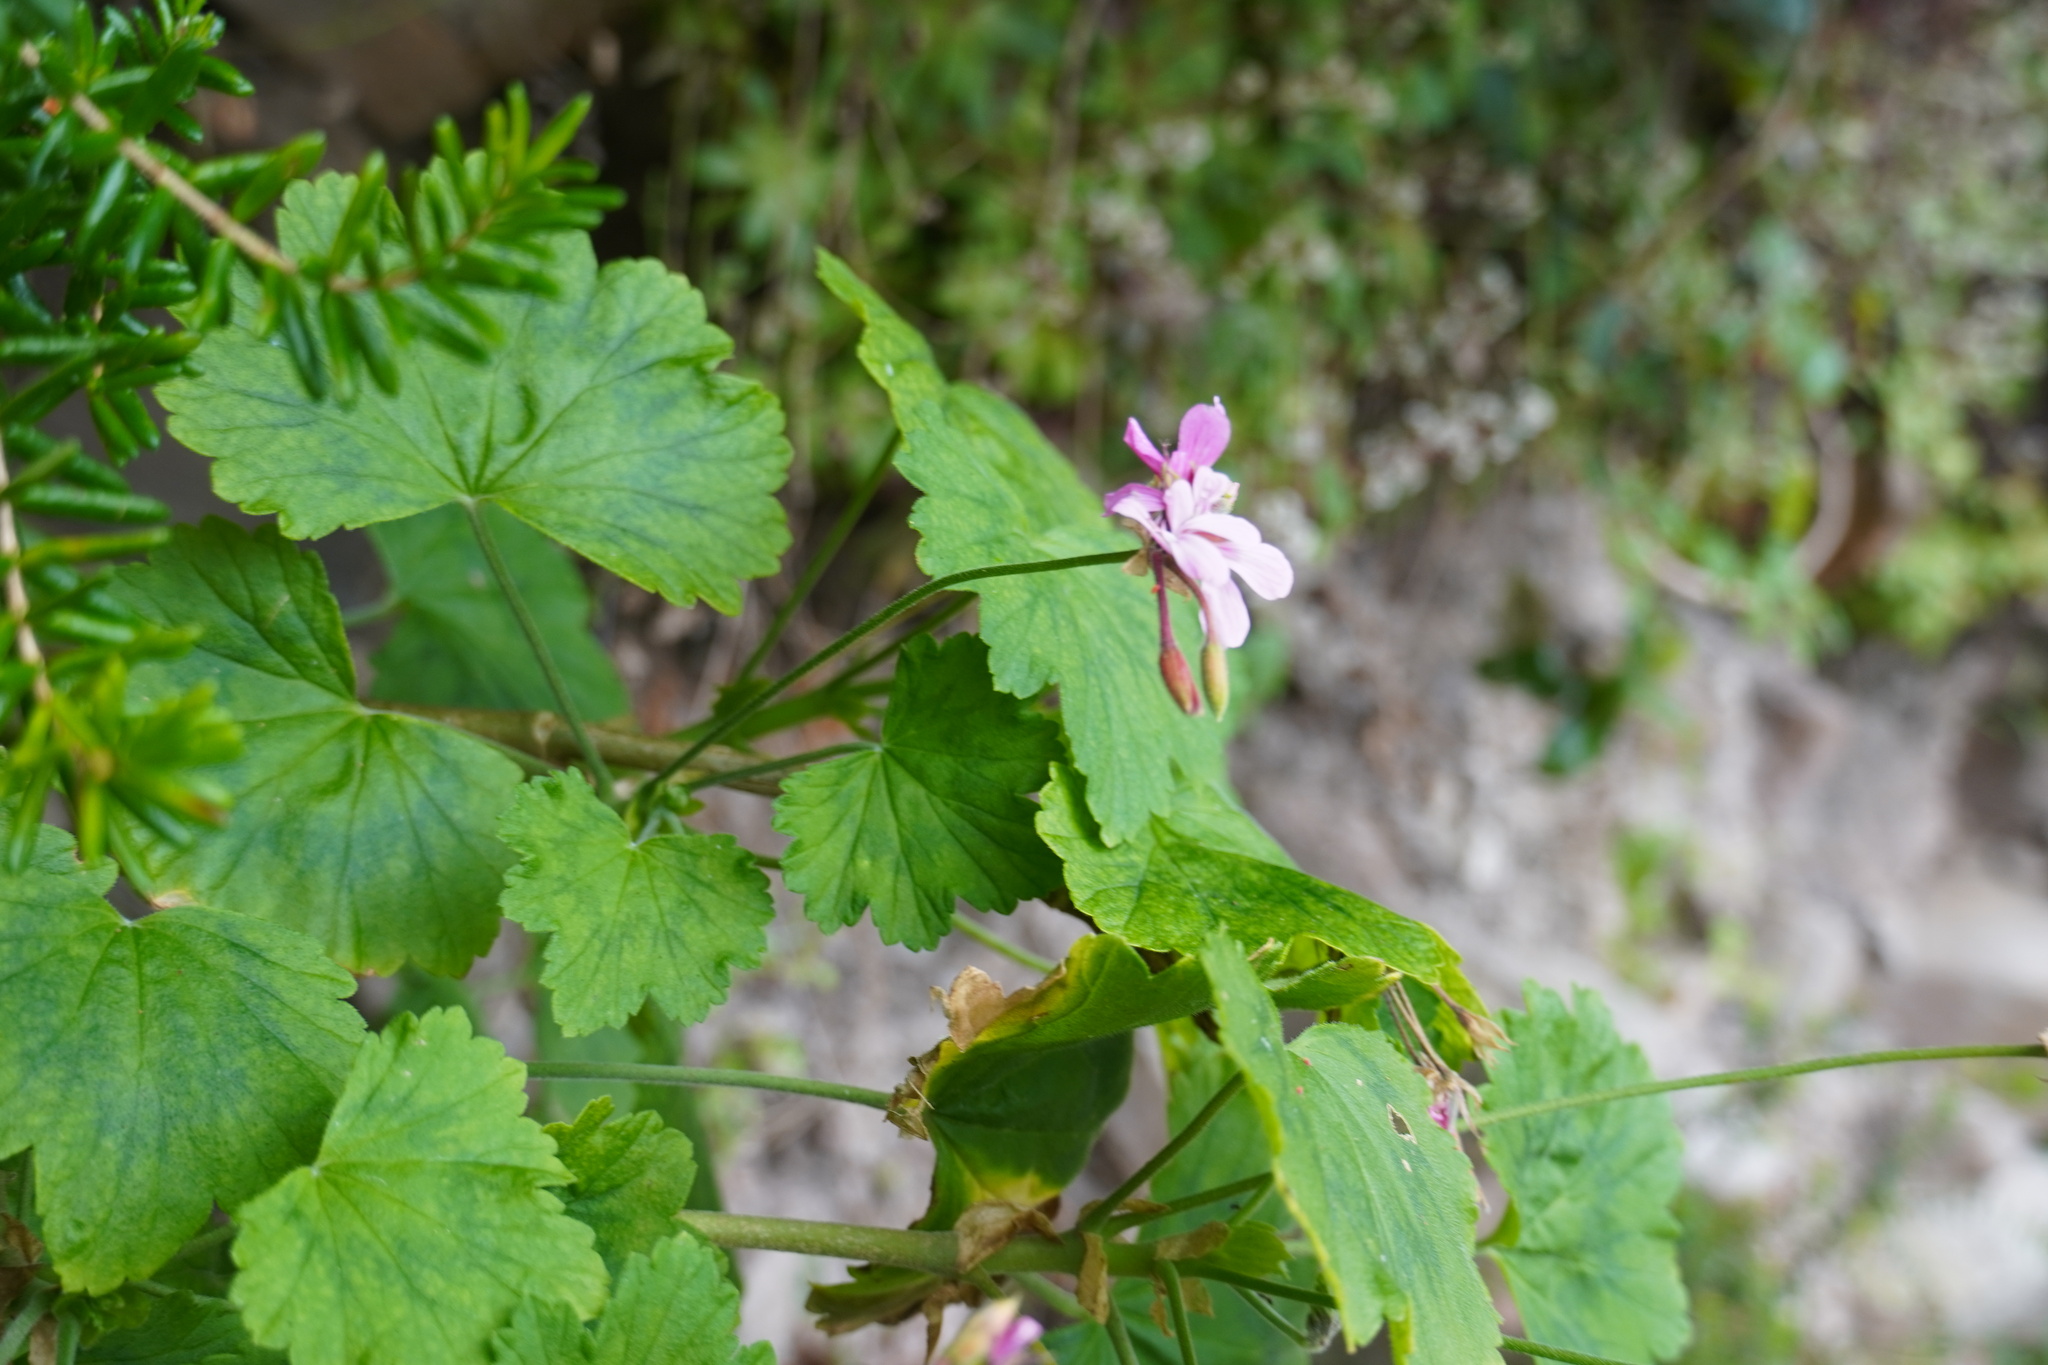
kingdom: Plantae
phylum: Tracheophyta
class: Magnoliopsida
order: Geraniales
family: Geraniaceae
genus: Pelargonium
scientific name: Pelargonium zonale
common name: Horseshoe geranium
